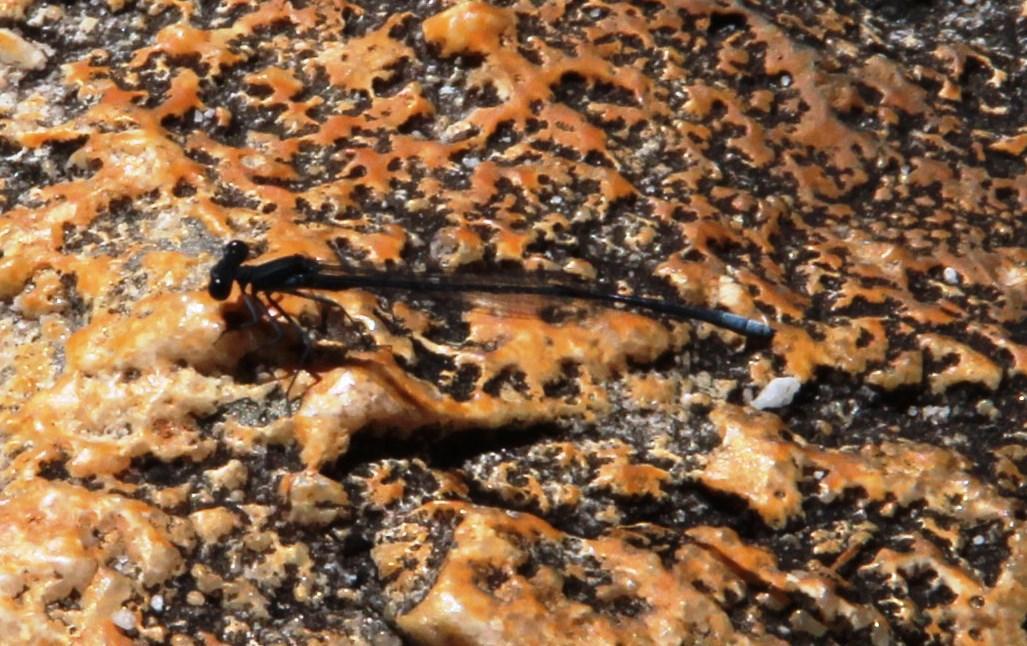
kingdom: Animalia
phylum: Arthropoda
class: Insecta
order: Odonata
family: Platycnemididae
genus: Elattoneura
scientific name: Elattoneura frenulata
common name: Sooty threadtail
